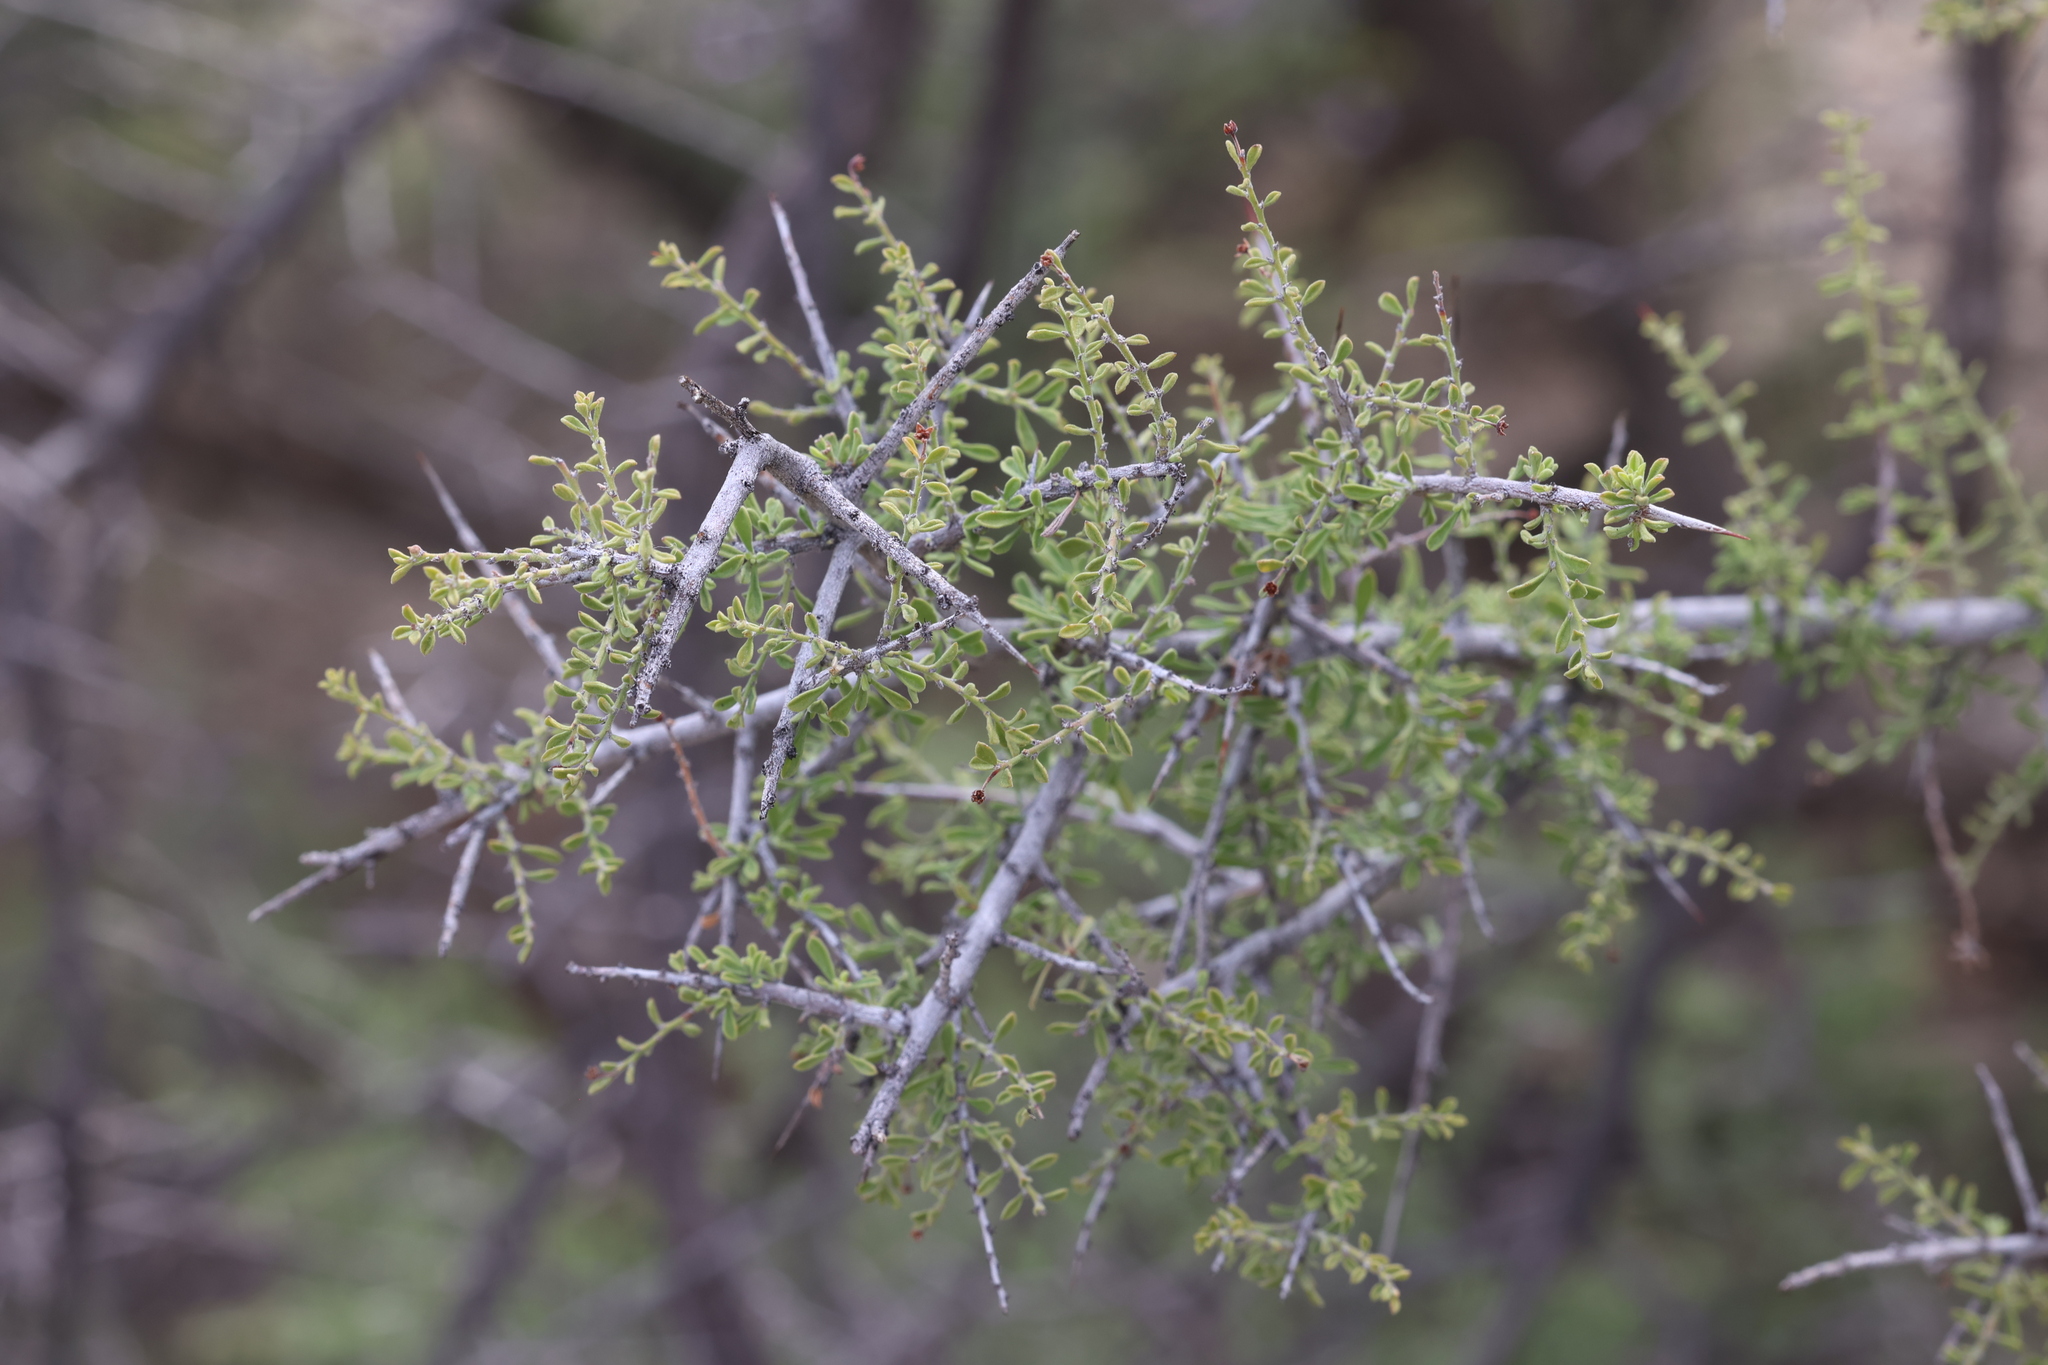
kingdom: Plantae
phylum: Tracheophyta
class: Magnoliopsida
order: Rosales
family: Rhamnaceae
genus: Condalia
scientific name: Condalia warnockii
